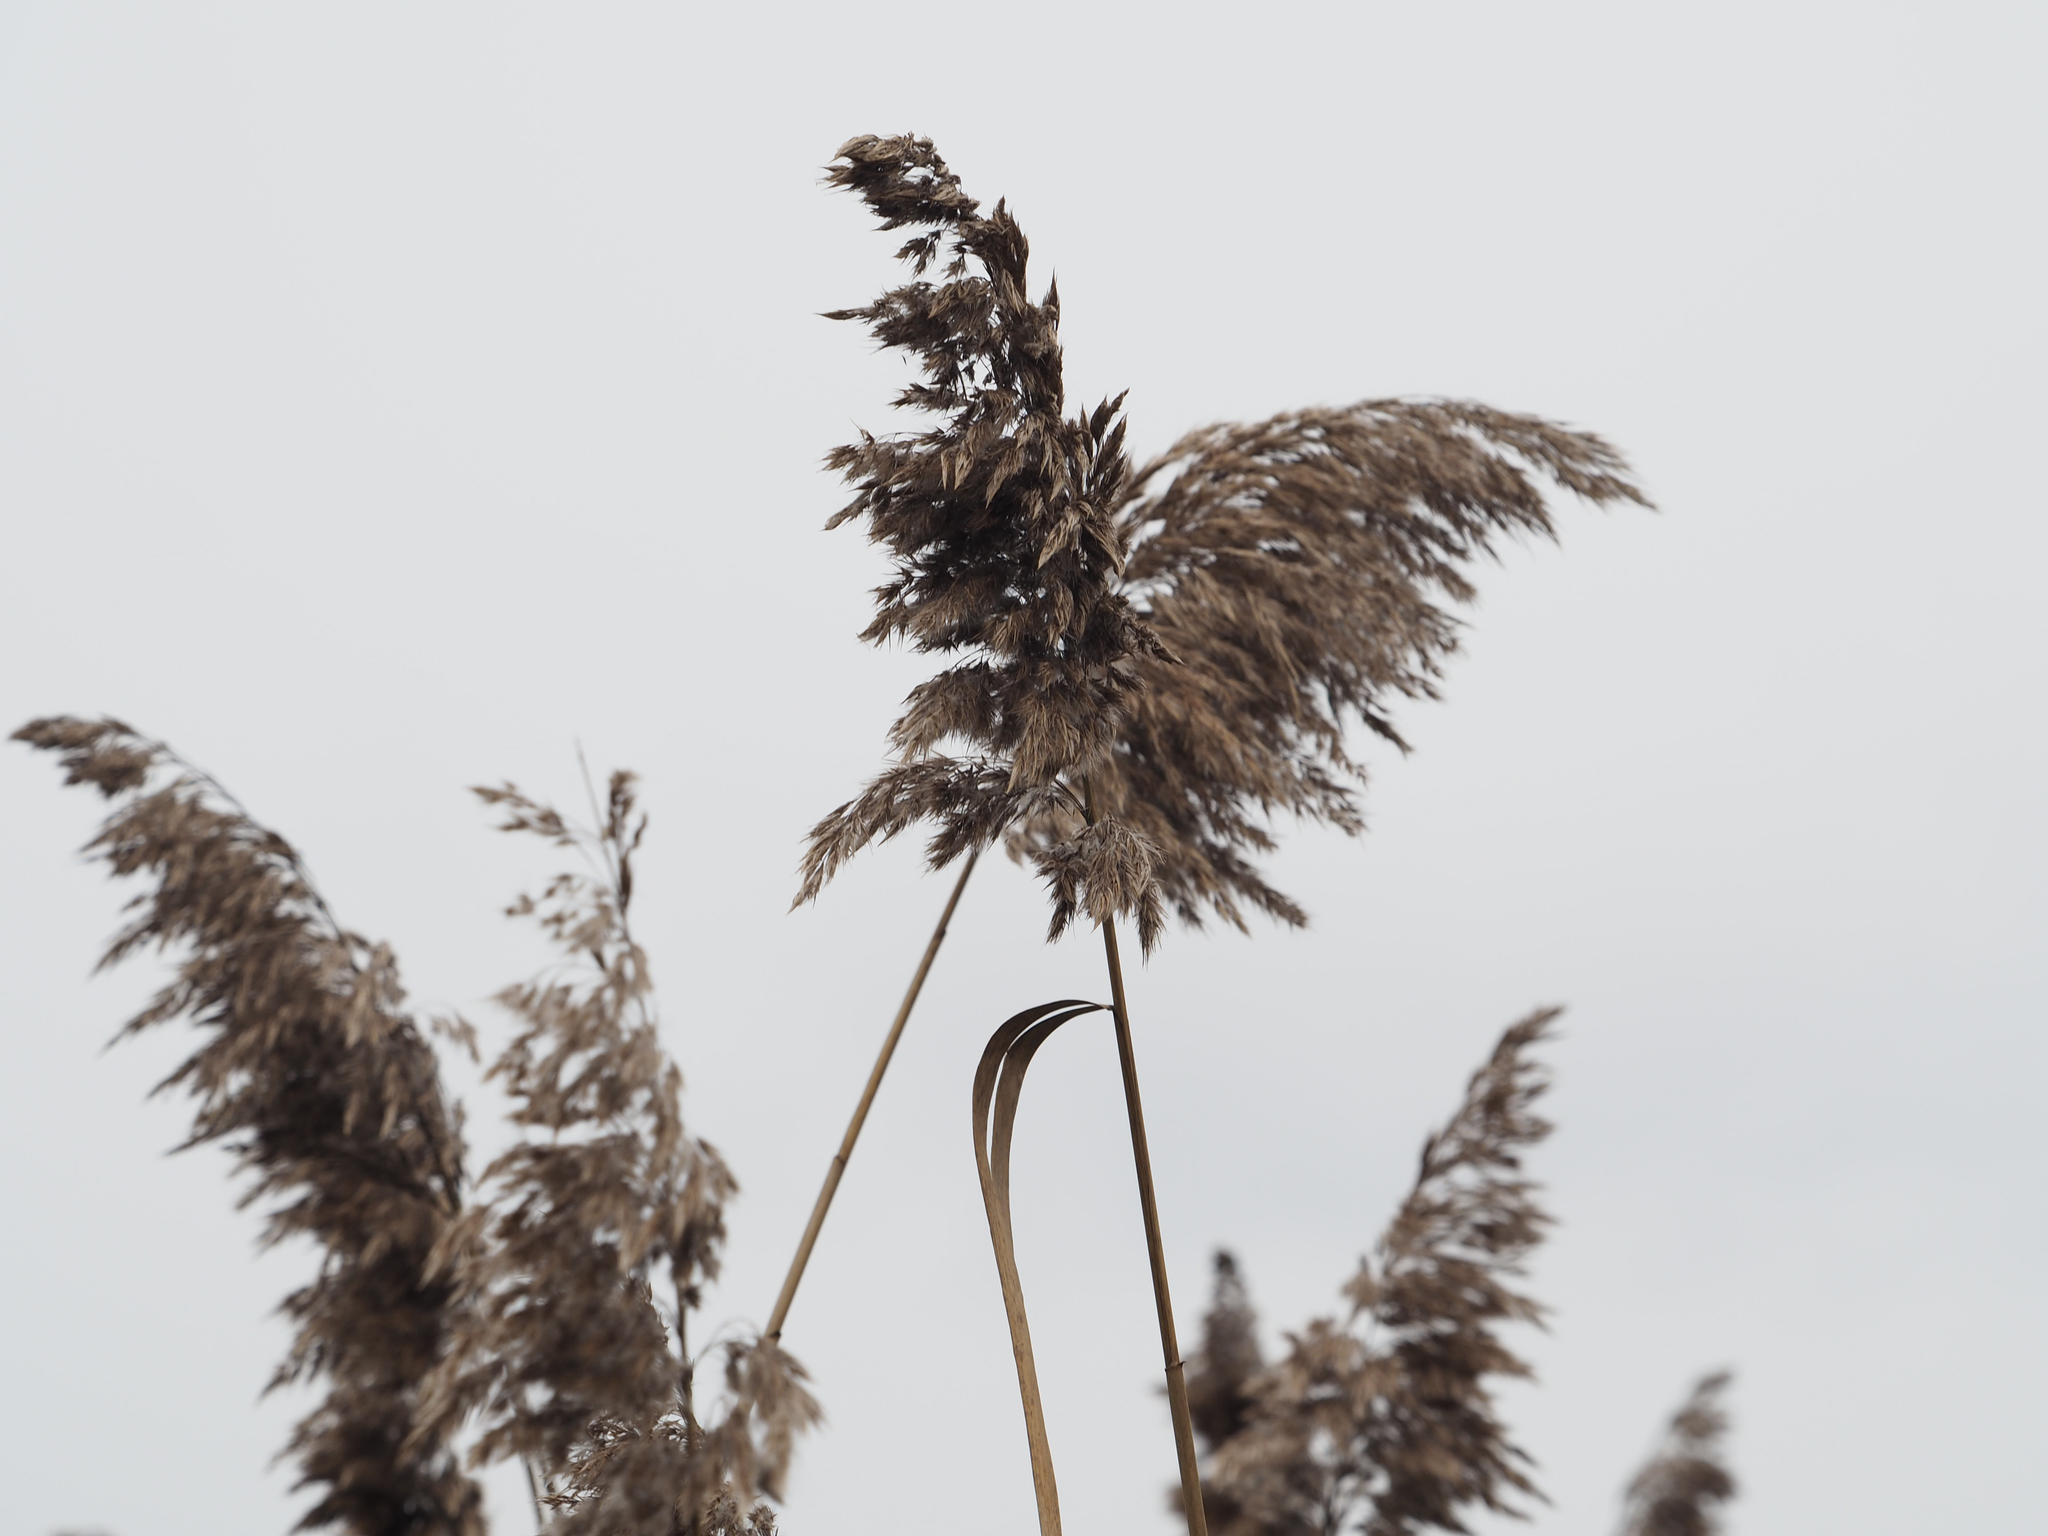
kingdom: Plantae
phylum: Tracheophyta
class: Liliopsida
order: Poales
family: Poaceae
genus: Phragmites
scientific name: Phragmites australis
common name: Common reed
